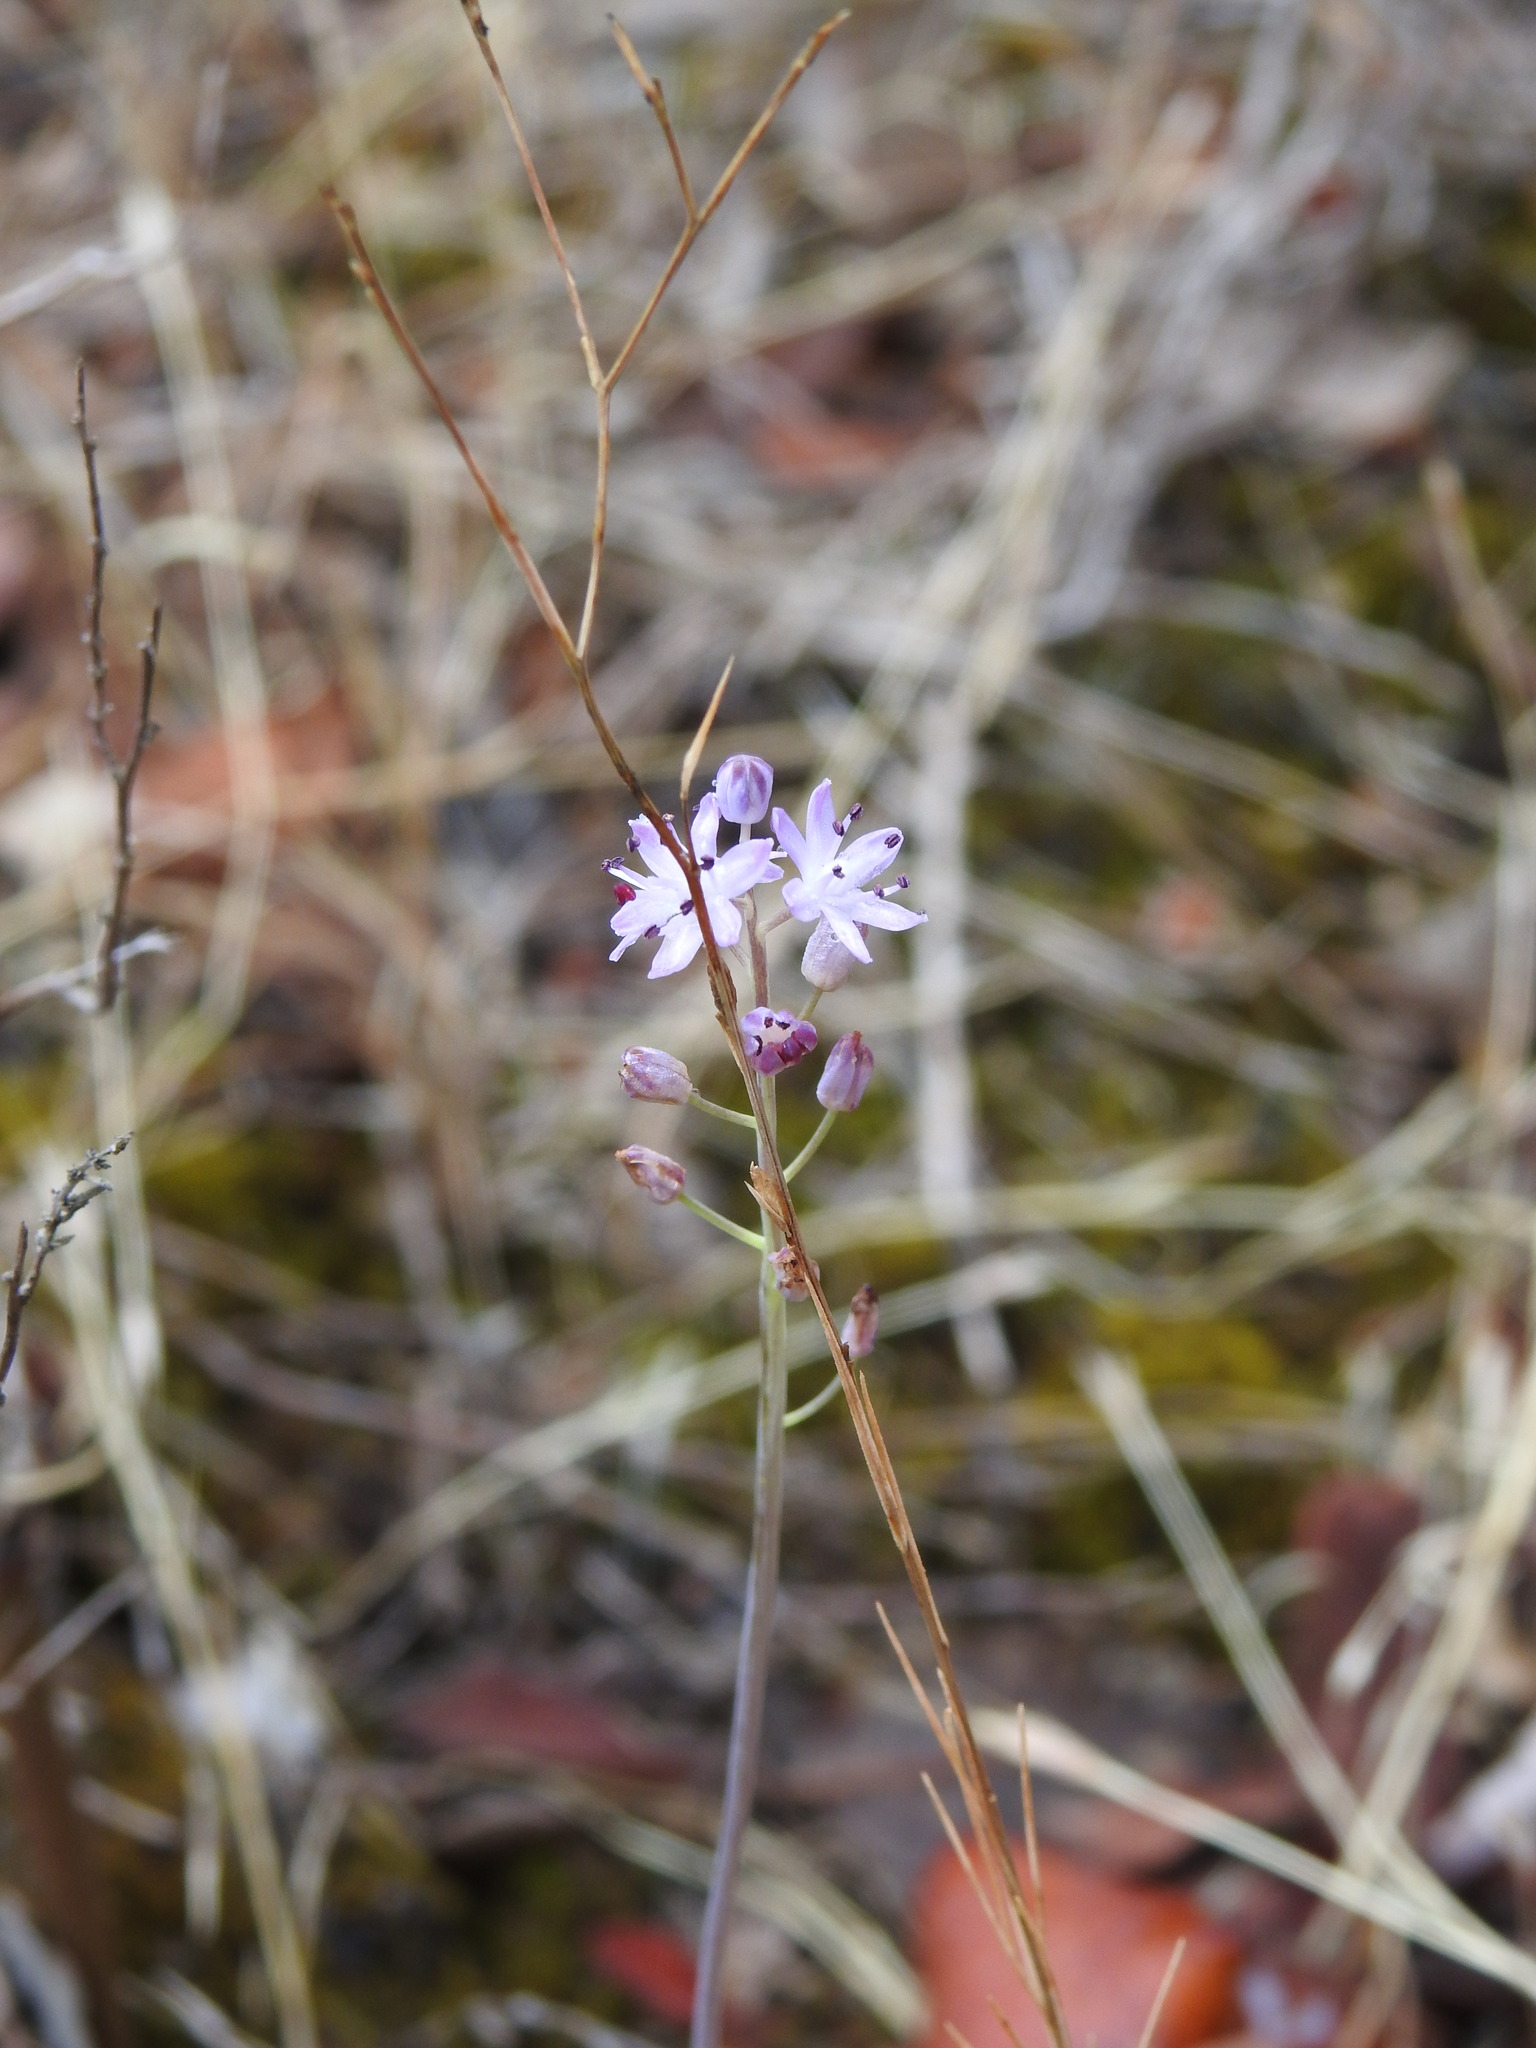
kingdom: Plantae
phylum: Tracheophyta
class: Liliopsida
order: Asparagales
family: Asparagaceae
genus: Prospero
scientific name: Prospero autumnale
